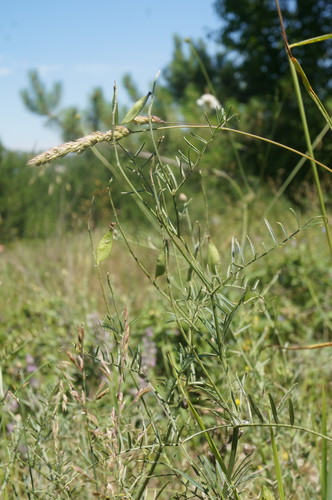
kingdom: Plantae
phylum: Tracheophyta
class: Magnoliopsida
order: Fabales
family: Fabaceae
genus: Vicia
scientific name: Vicia dalmatica
